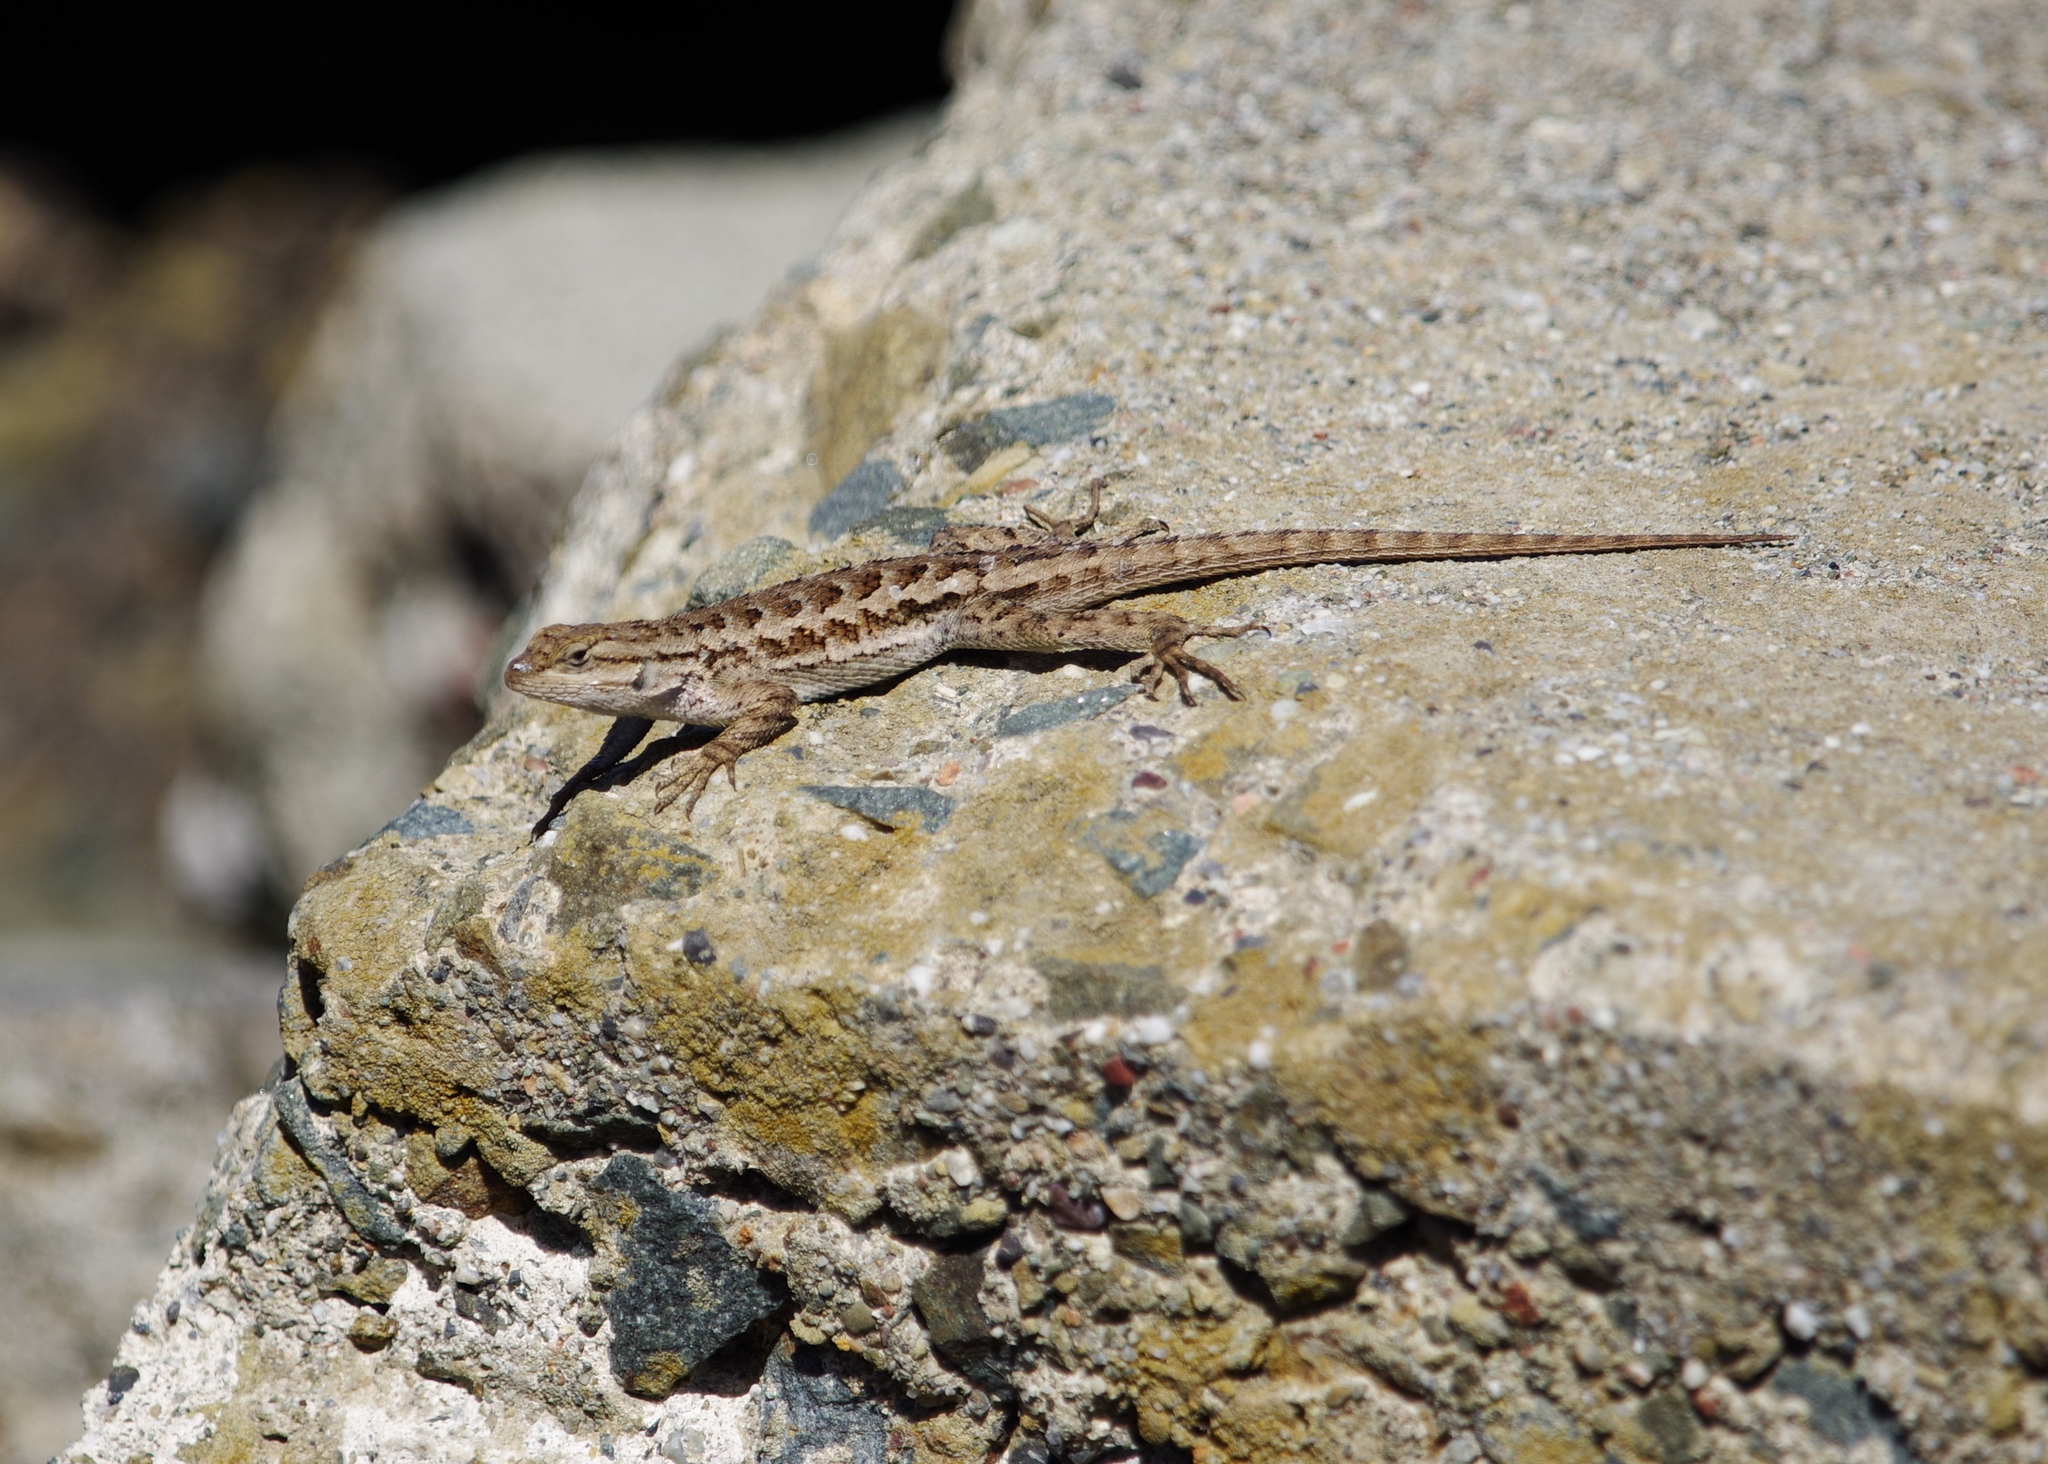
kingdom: Animalia
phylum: Chordata
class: Squamata
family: Phrynosomatidae
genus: Sceloporus
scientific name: Sceloporus occidentalis
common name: Western fence lizard
